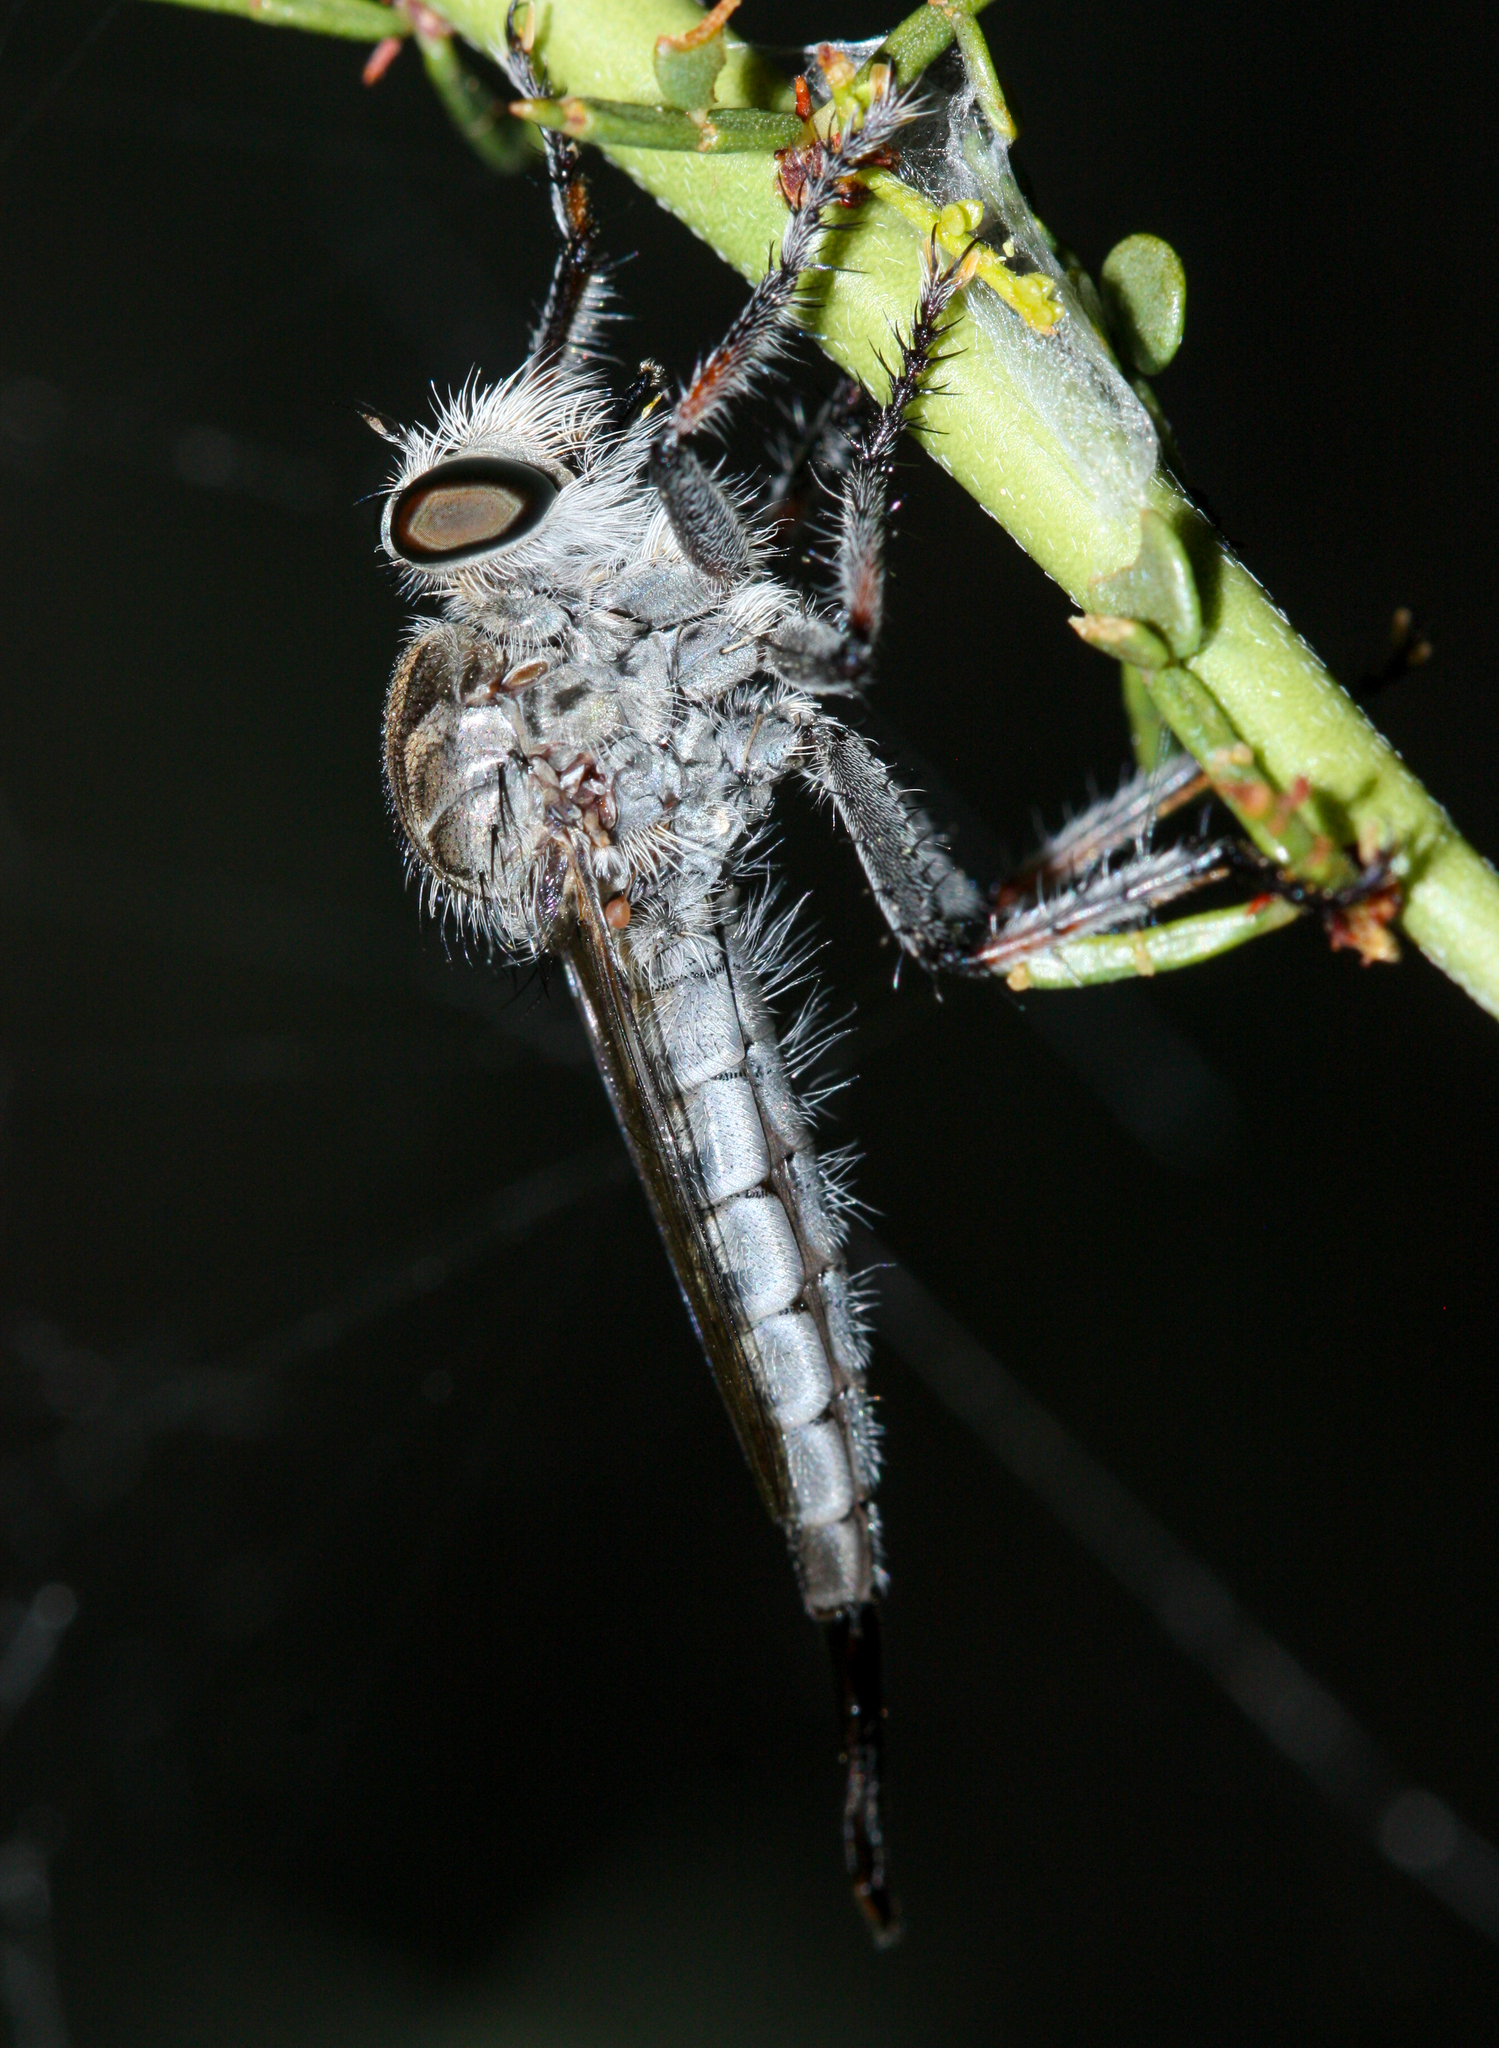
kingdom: Animalia
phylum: Arthropoda
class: Insecta
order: Diptera
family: Asilidae
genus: Efferia
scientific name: Efferia
